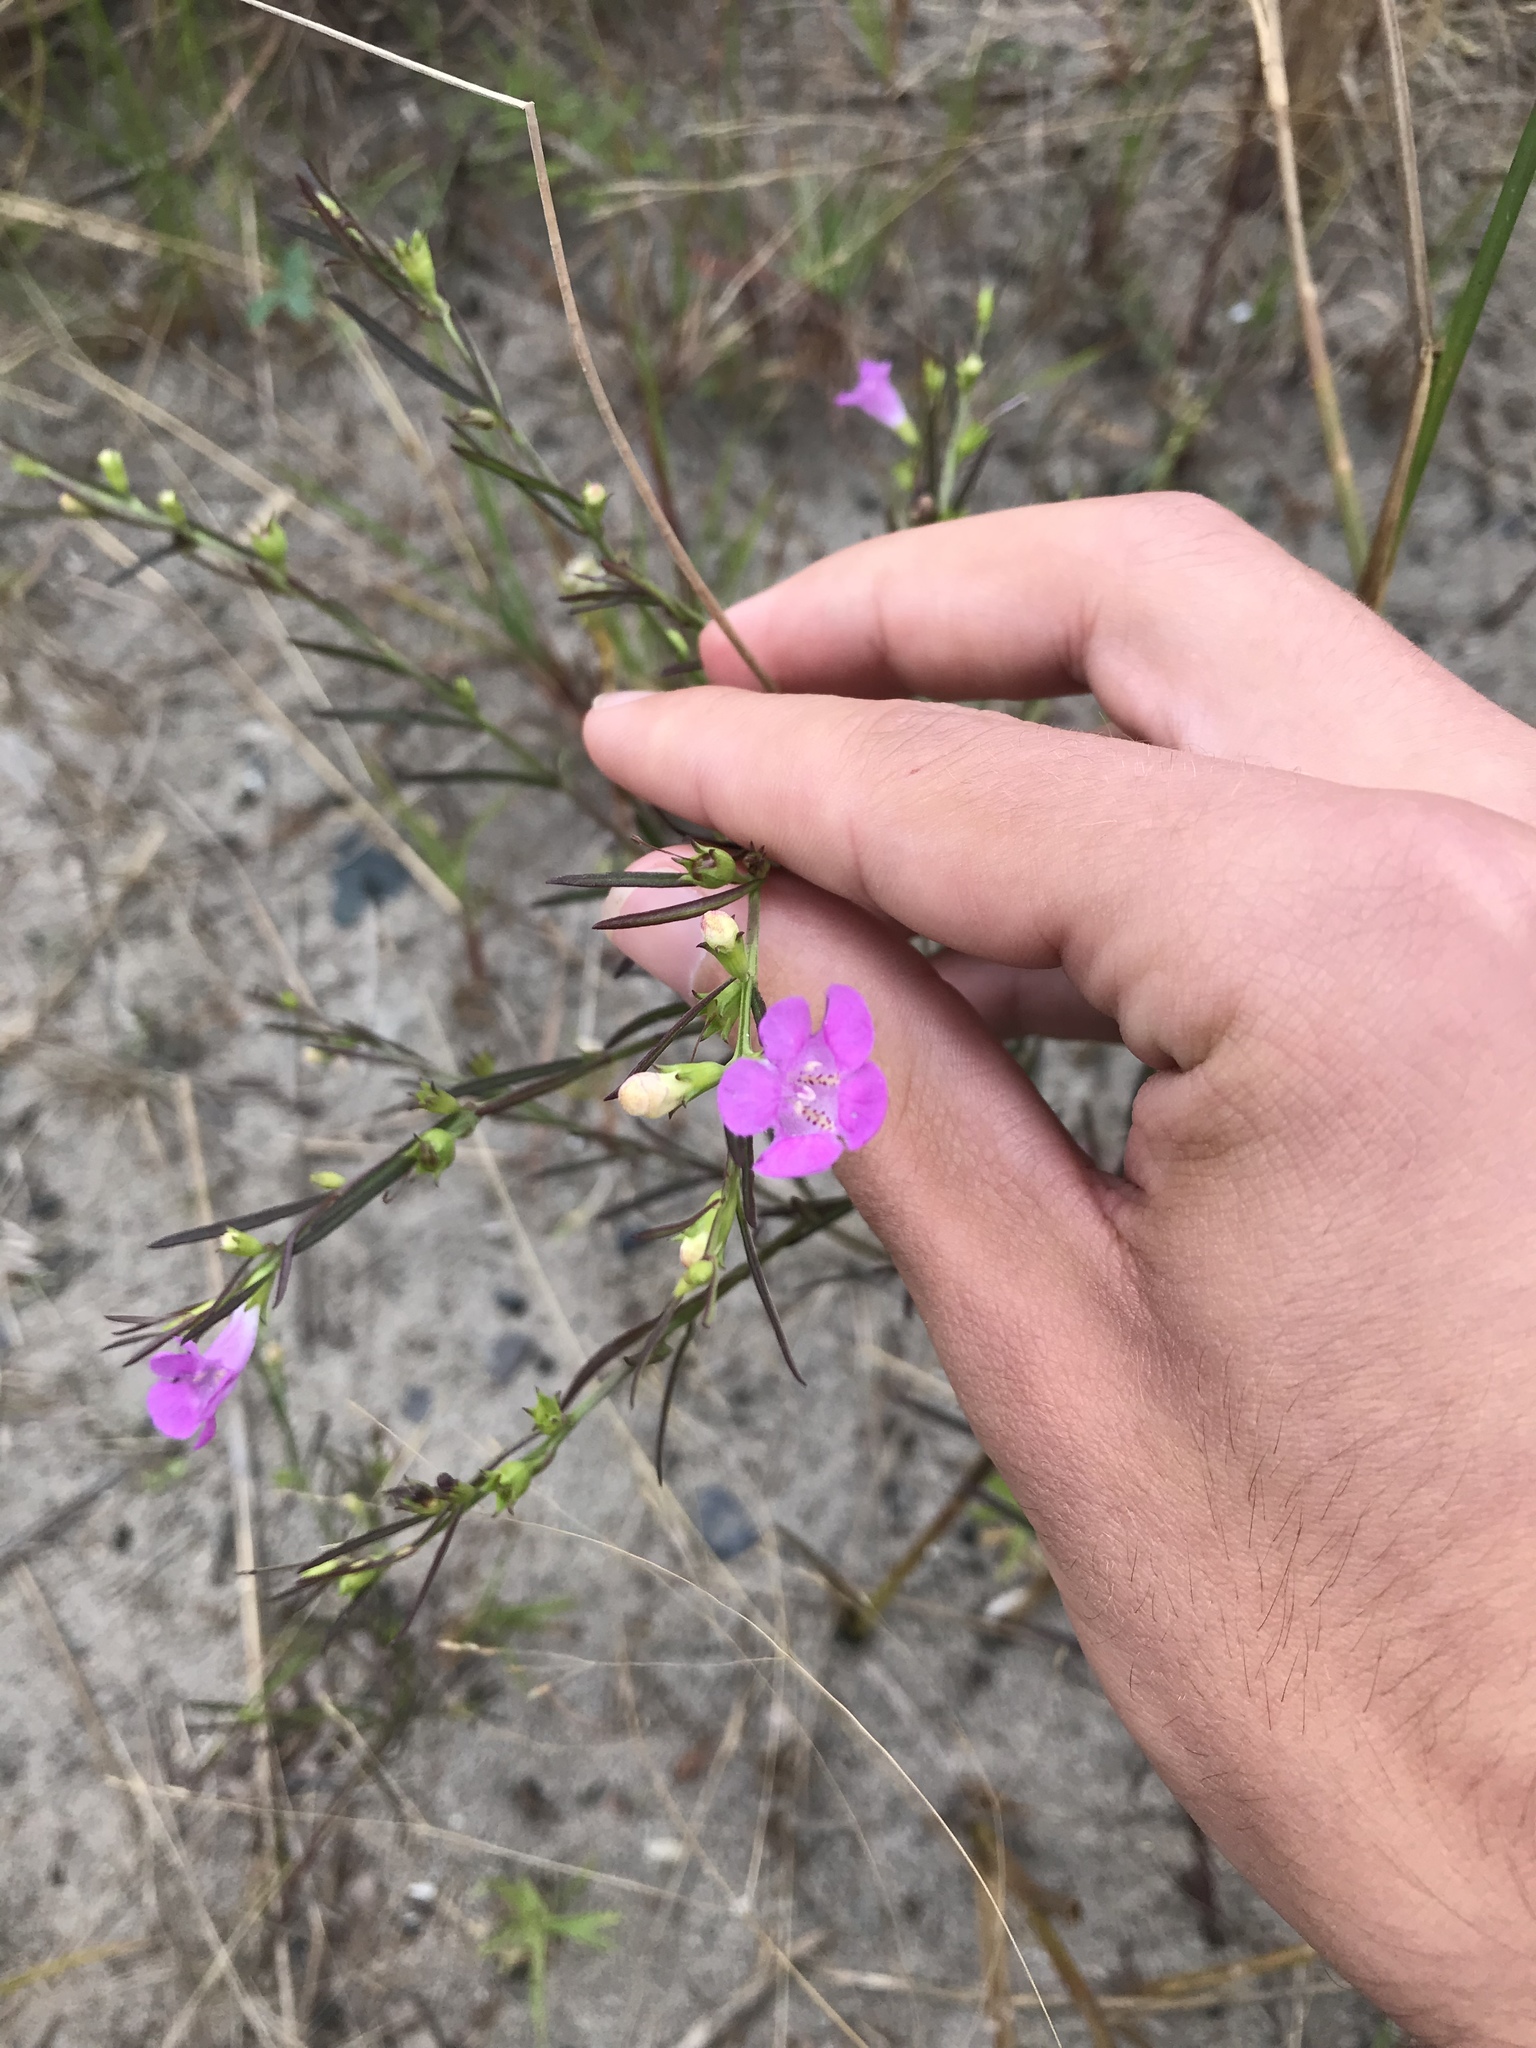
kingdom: Plantae
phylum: Tracheophyta
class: Magnoliopsida
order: Lamiales
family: Orobanchaceae
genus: Agalinis
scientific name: Agalinis purpurea
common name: Purple false foxglove
